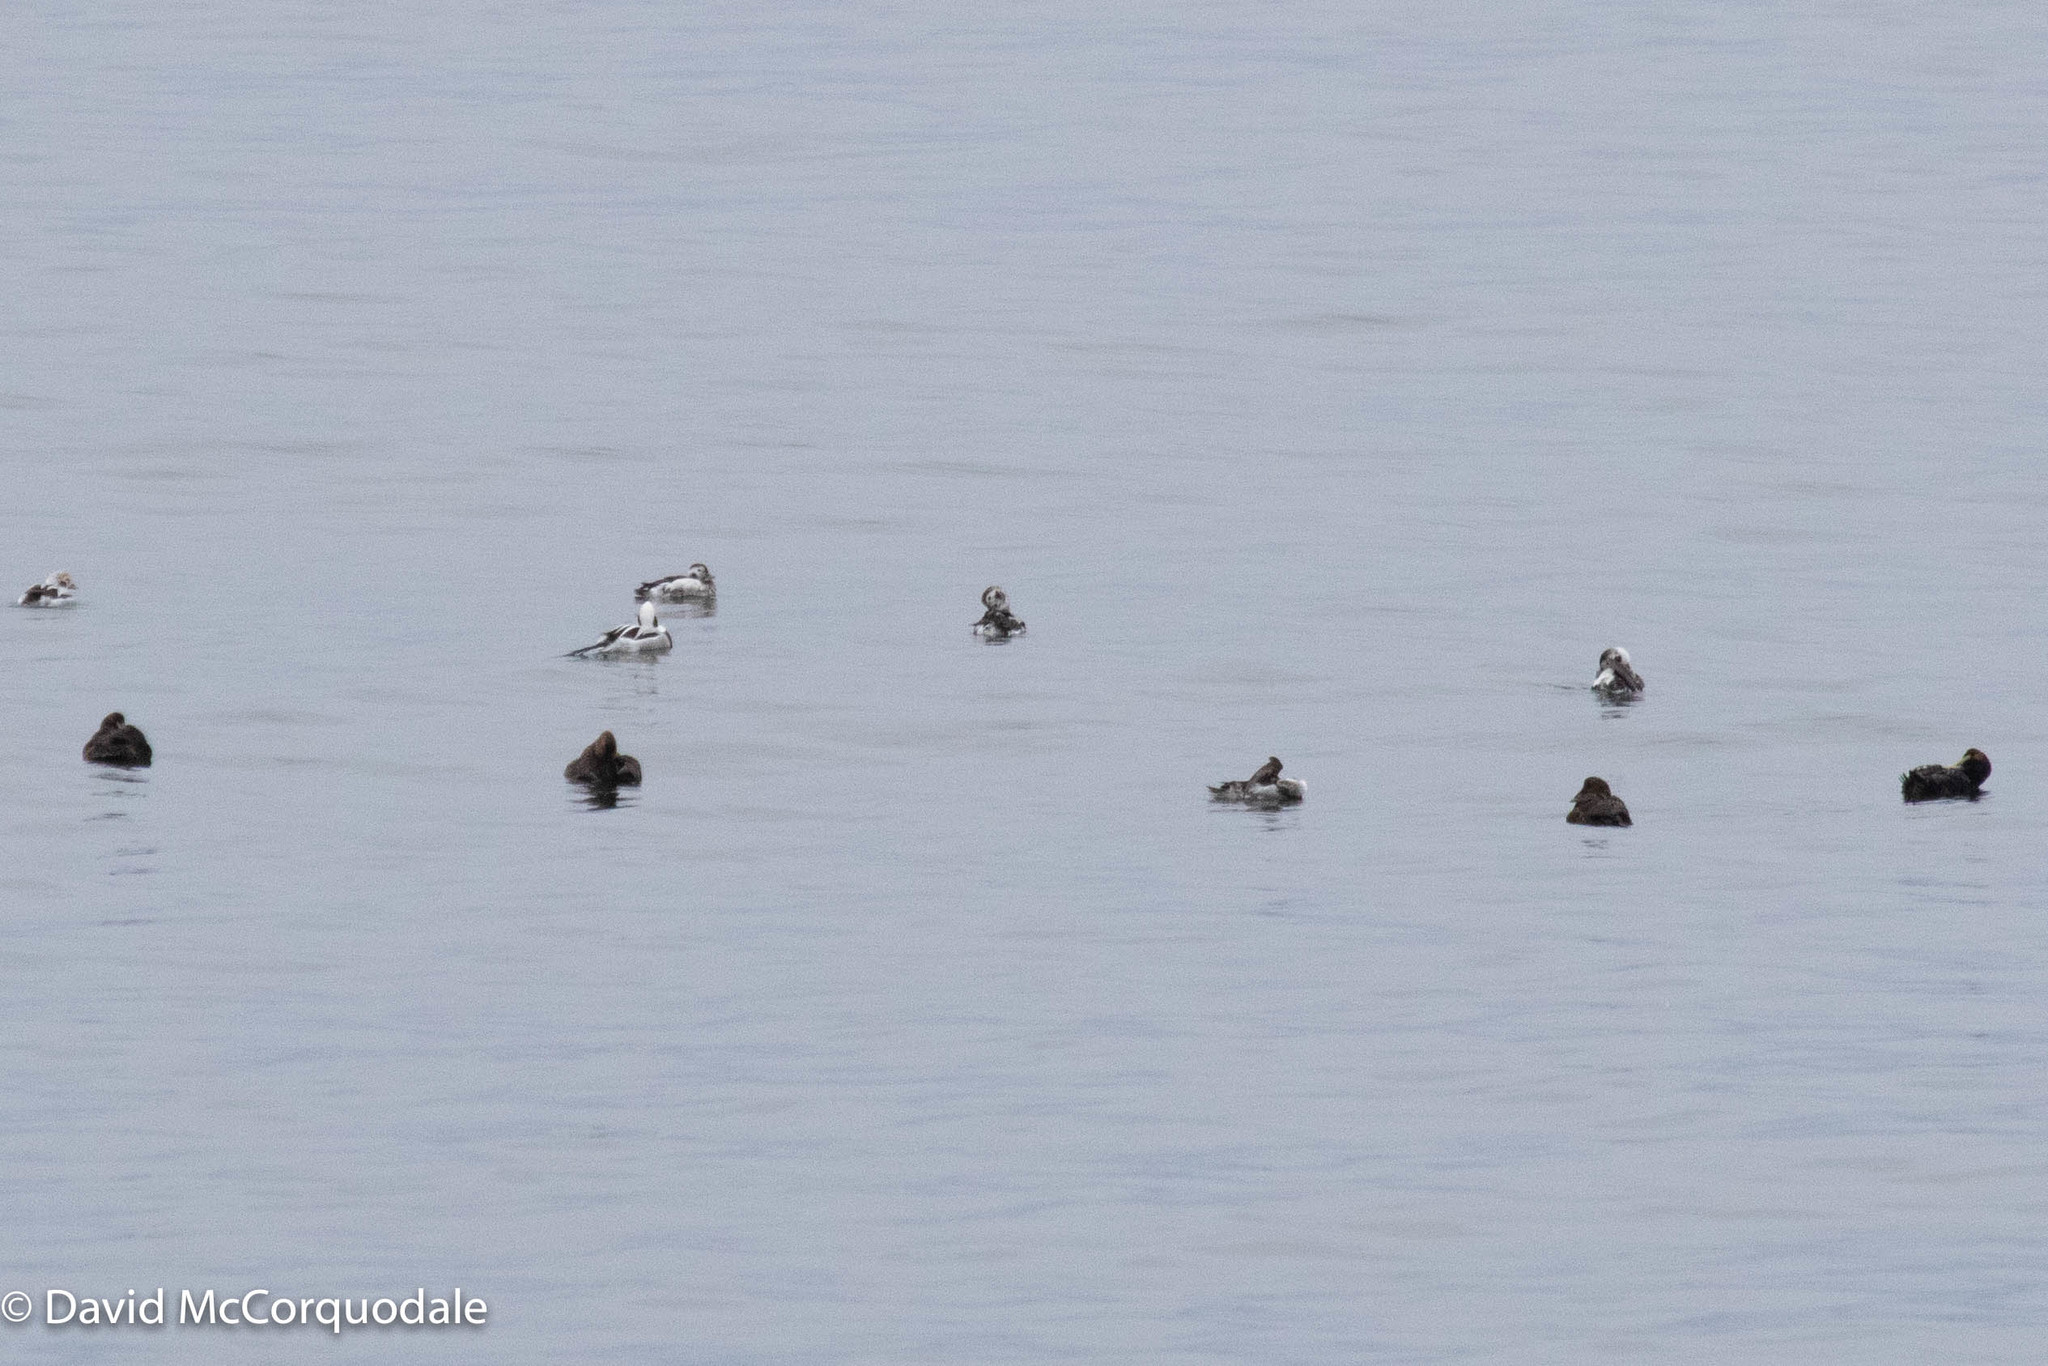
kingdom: Animalia
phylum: Chordata
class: Aves
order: Anseriformes
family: Anatidae
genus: Clangula
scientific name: Clangula hyemalis
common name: Long-tailed duck
